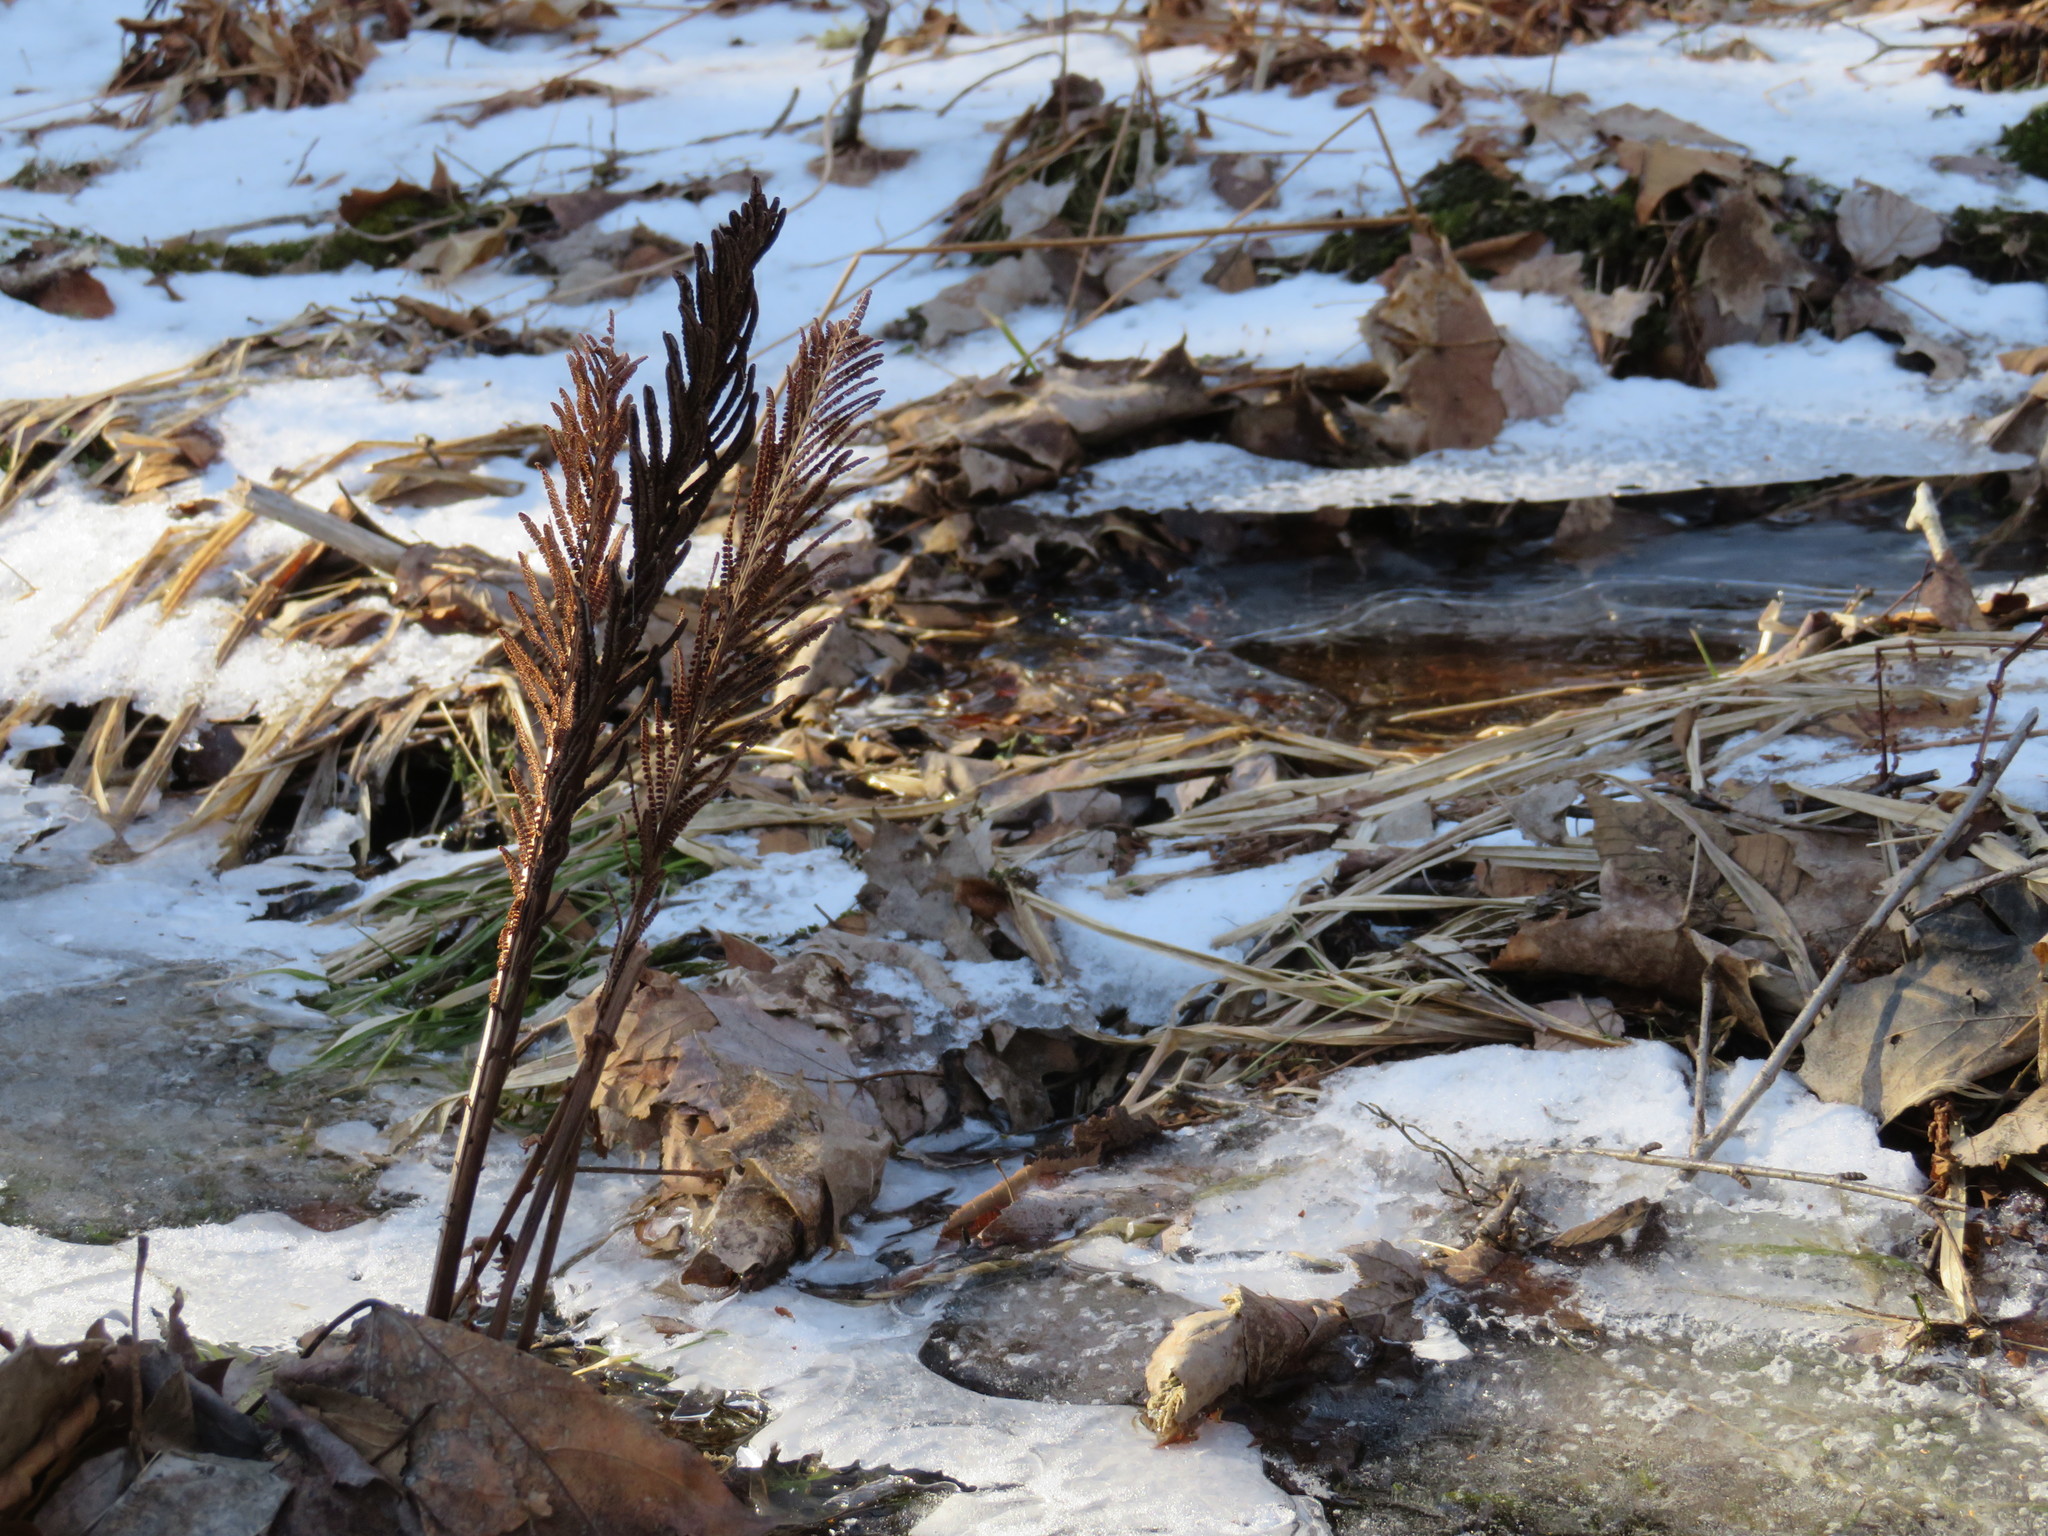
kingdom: Plantae
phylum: Tracheophyta
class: Polypodiopsida
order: Polypodiales
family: Onocleaceae
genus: Matteuccia
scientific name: Matteuccia struthiopteris
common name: Ostrich fern
